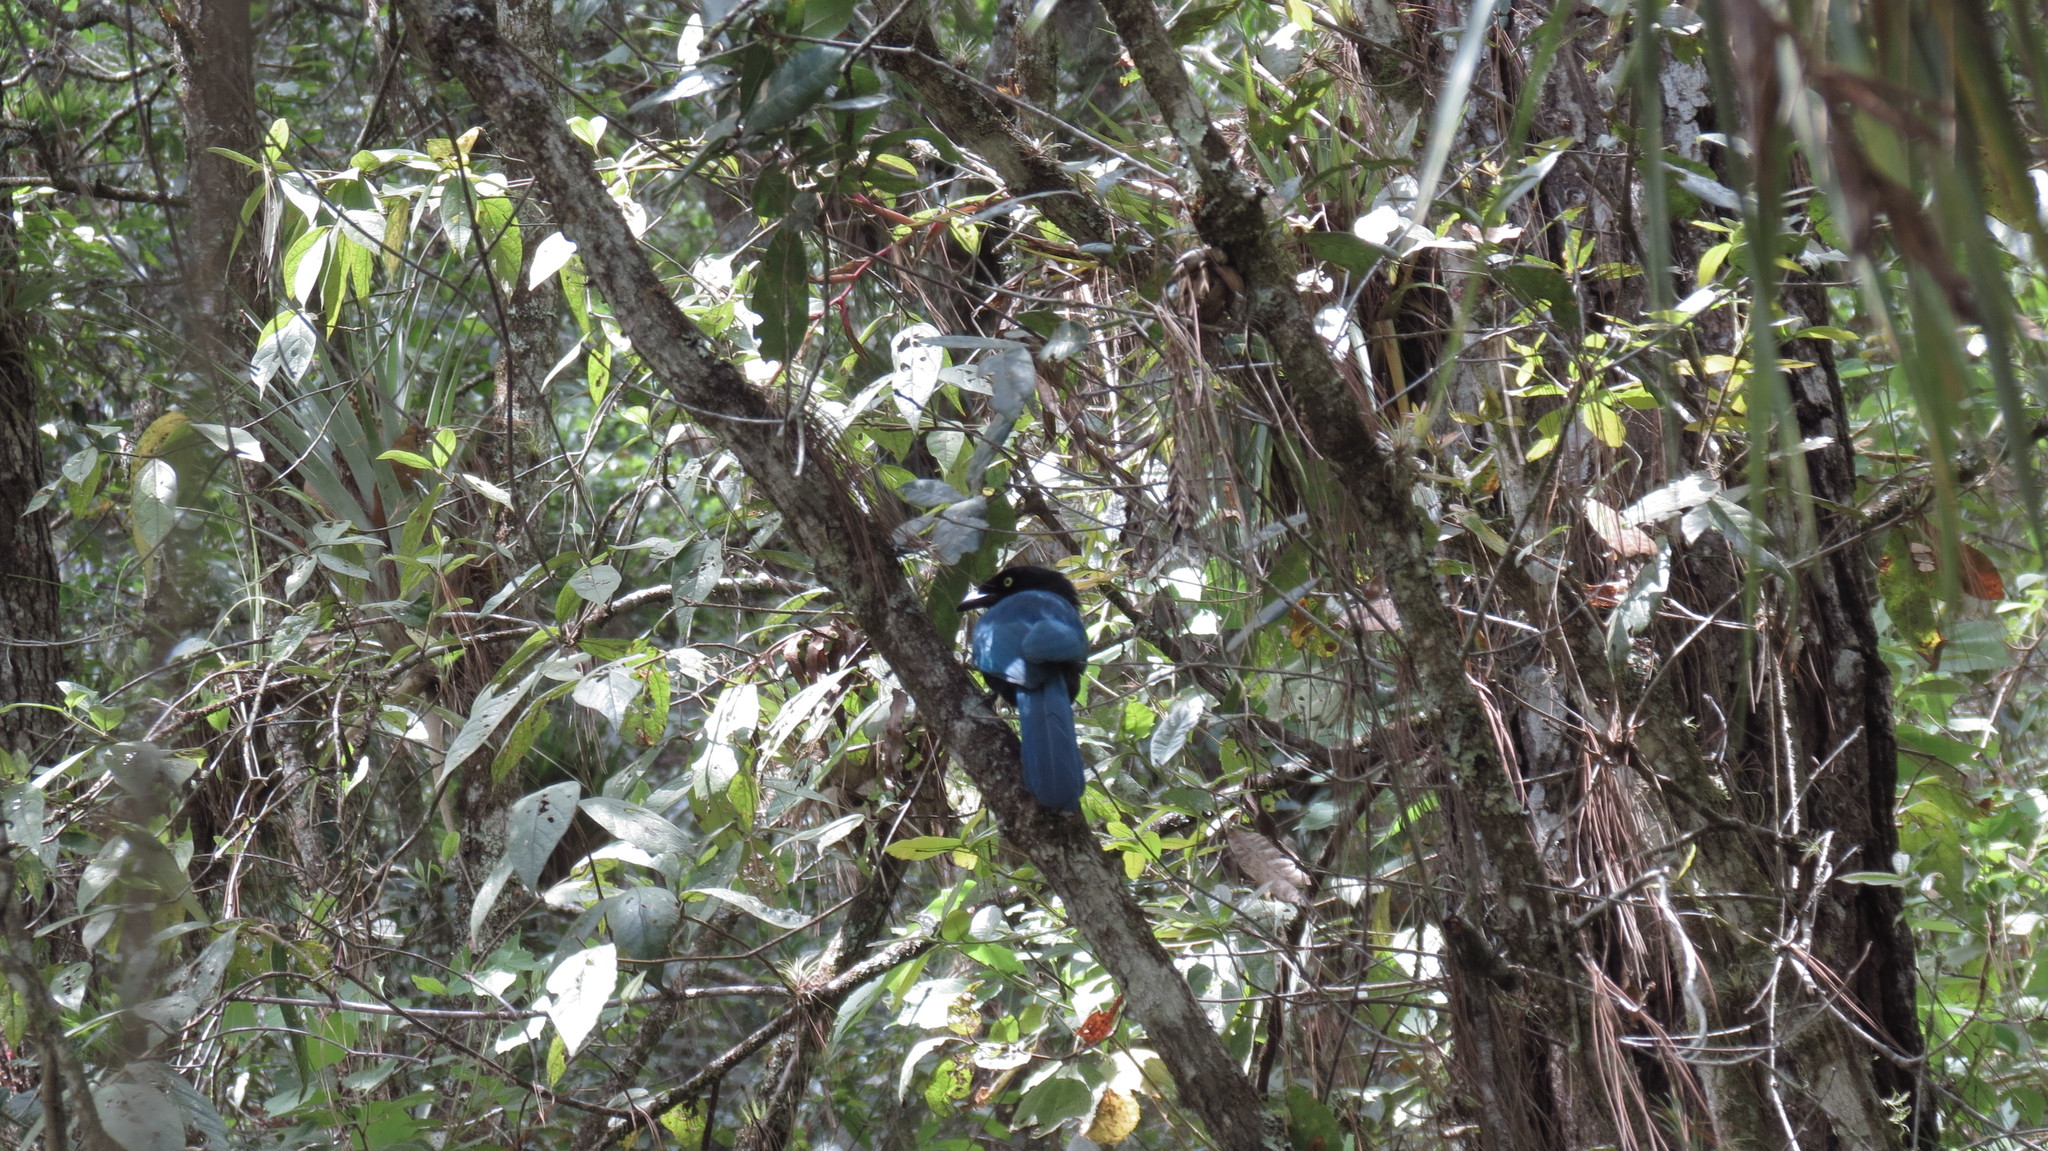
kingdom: Animalia
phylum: Chordata
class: Aves
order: Passeriformes
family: Corvidae
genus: Cyanocorax
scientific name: Cyanocorax melanocyaneus
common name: Bushy-crested jay
